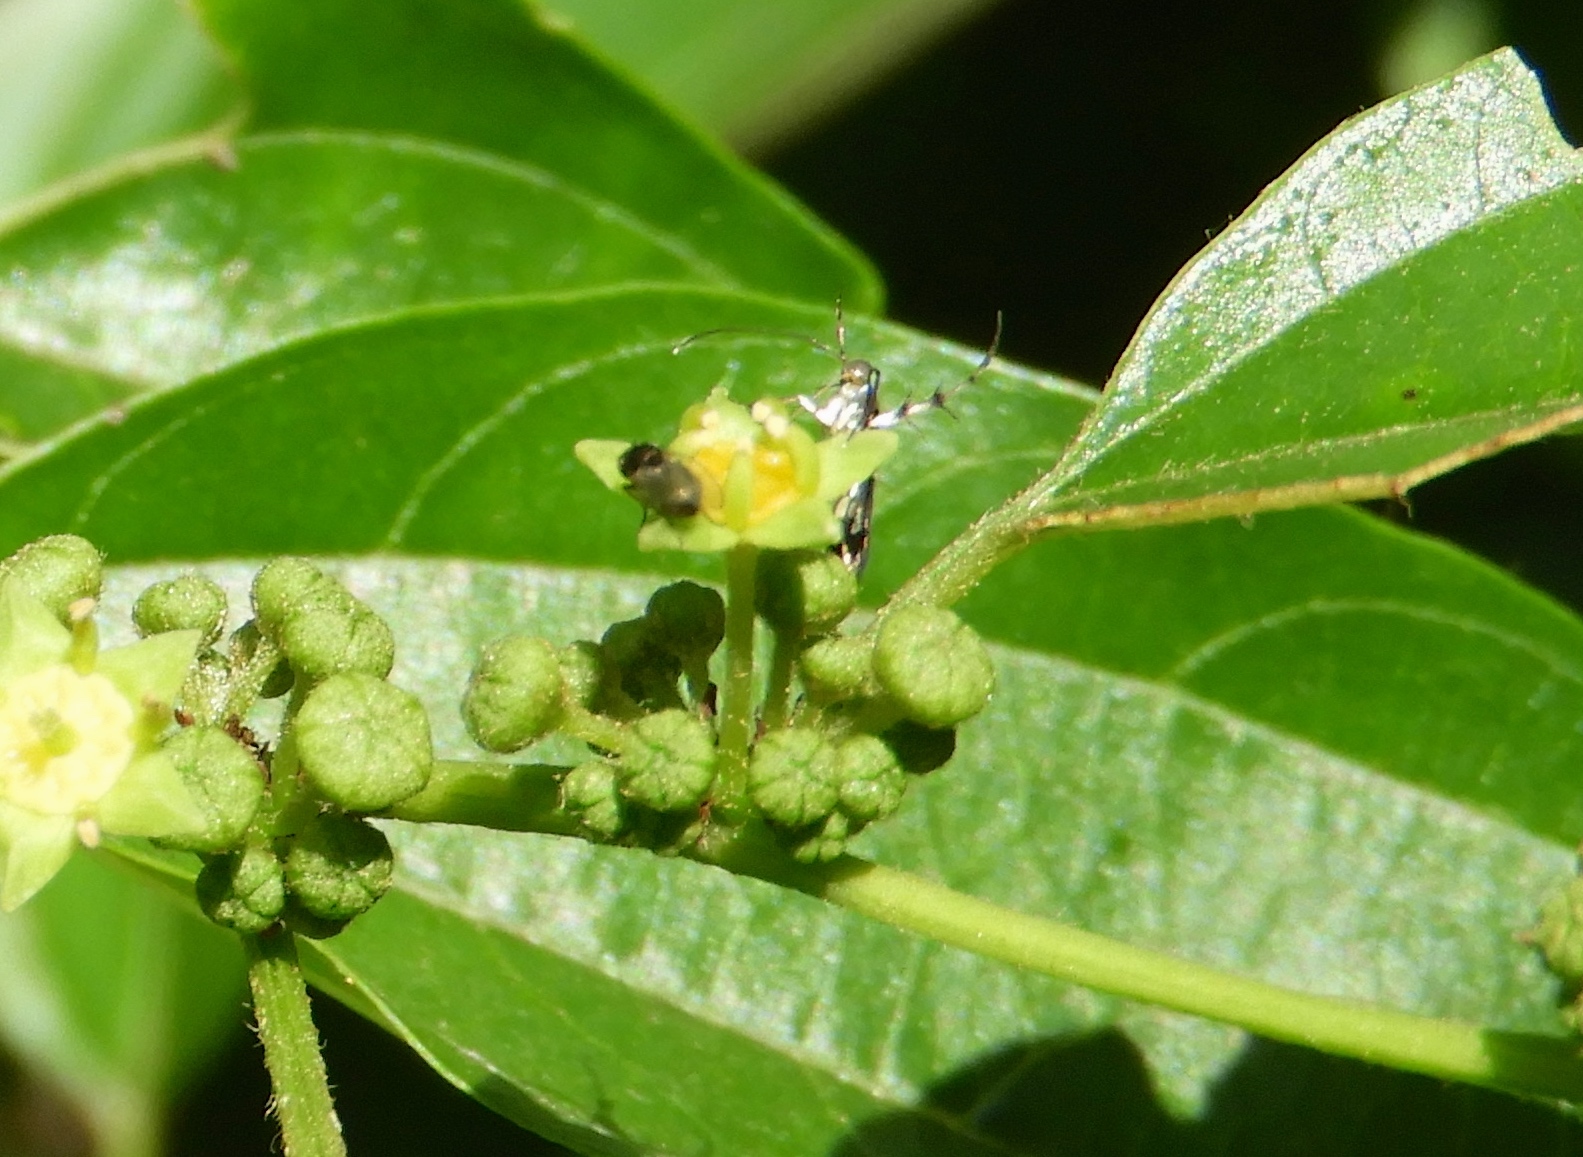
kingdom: Animalia
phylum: Arthropoda
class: Insecta
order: Lepidoptera
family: Heliodinidae
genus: Heliodines
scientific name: Heliodines
